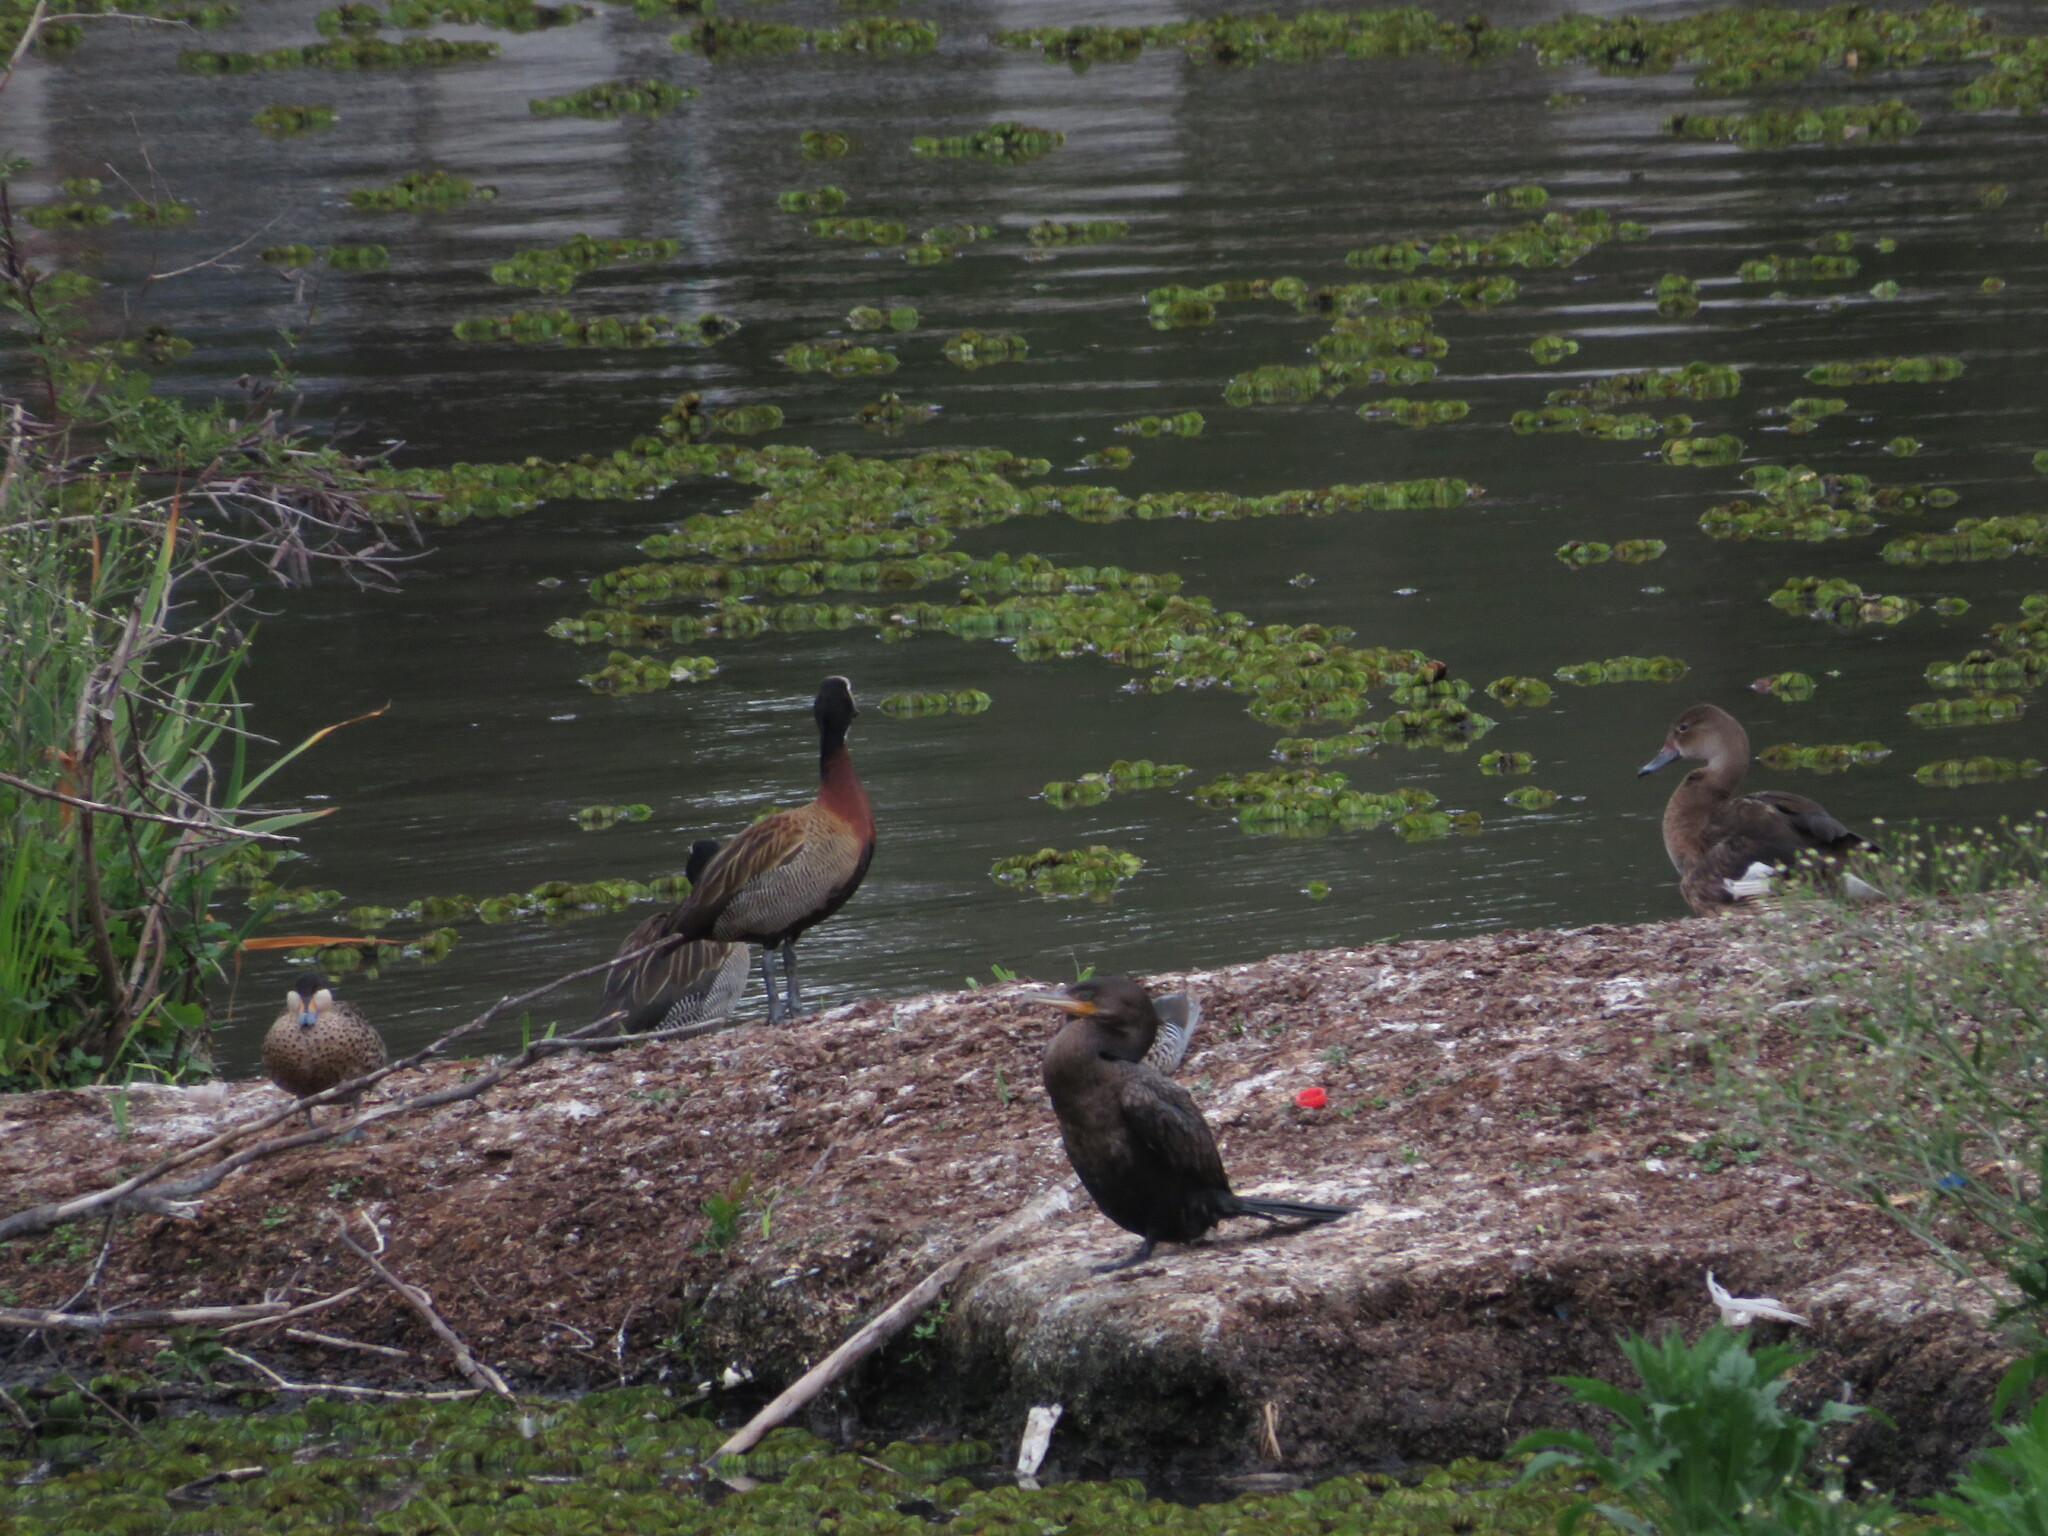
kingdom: Animalia
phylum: Chordata
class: Aves
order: Anseriformes
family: Anatidae
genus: Netta
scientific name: Netta peposaca
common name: Rosy-billed pochard
